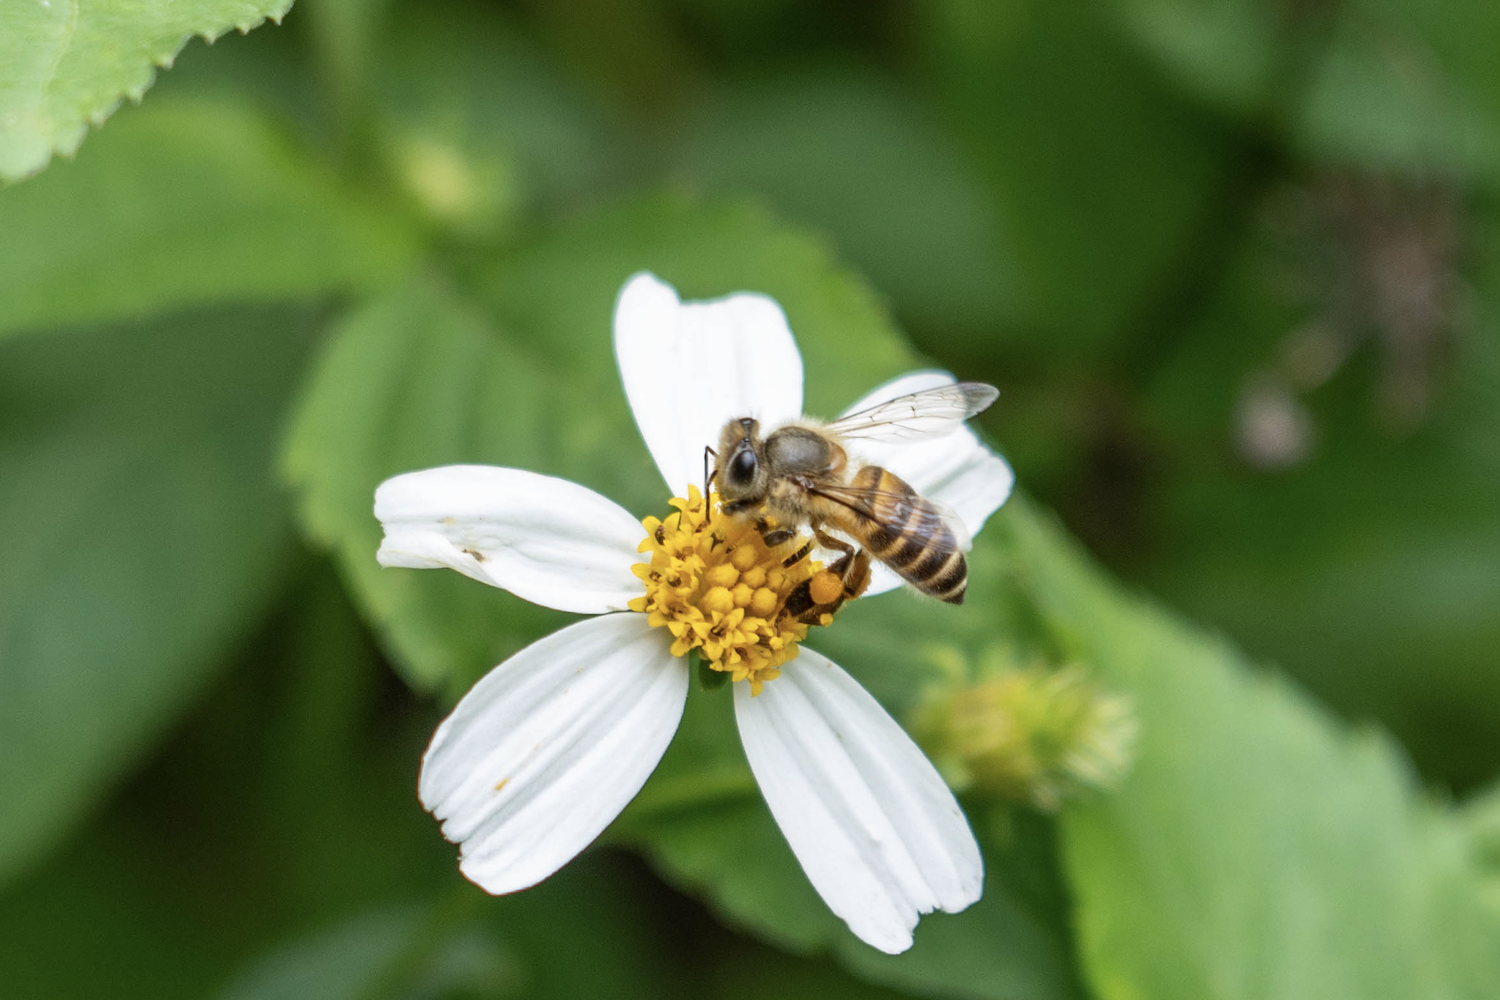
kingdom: Animalia
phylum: Arthropoda
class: Insecta
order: Hymenoptera
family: Apidae
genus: Apis
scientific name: Apis cerana
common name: Honey bee
